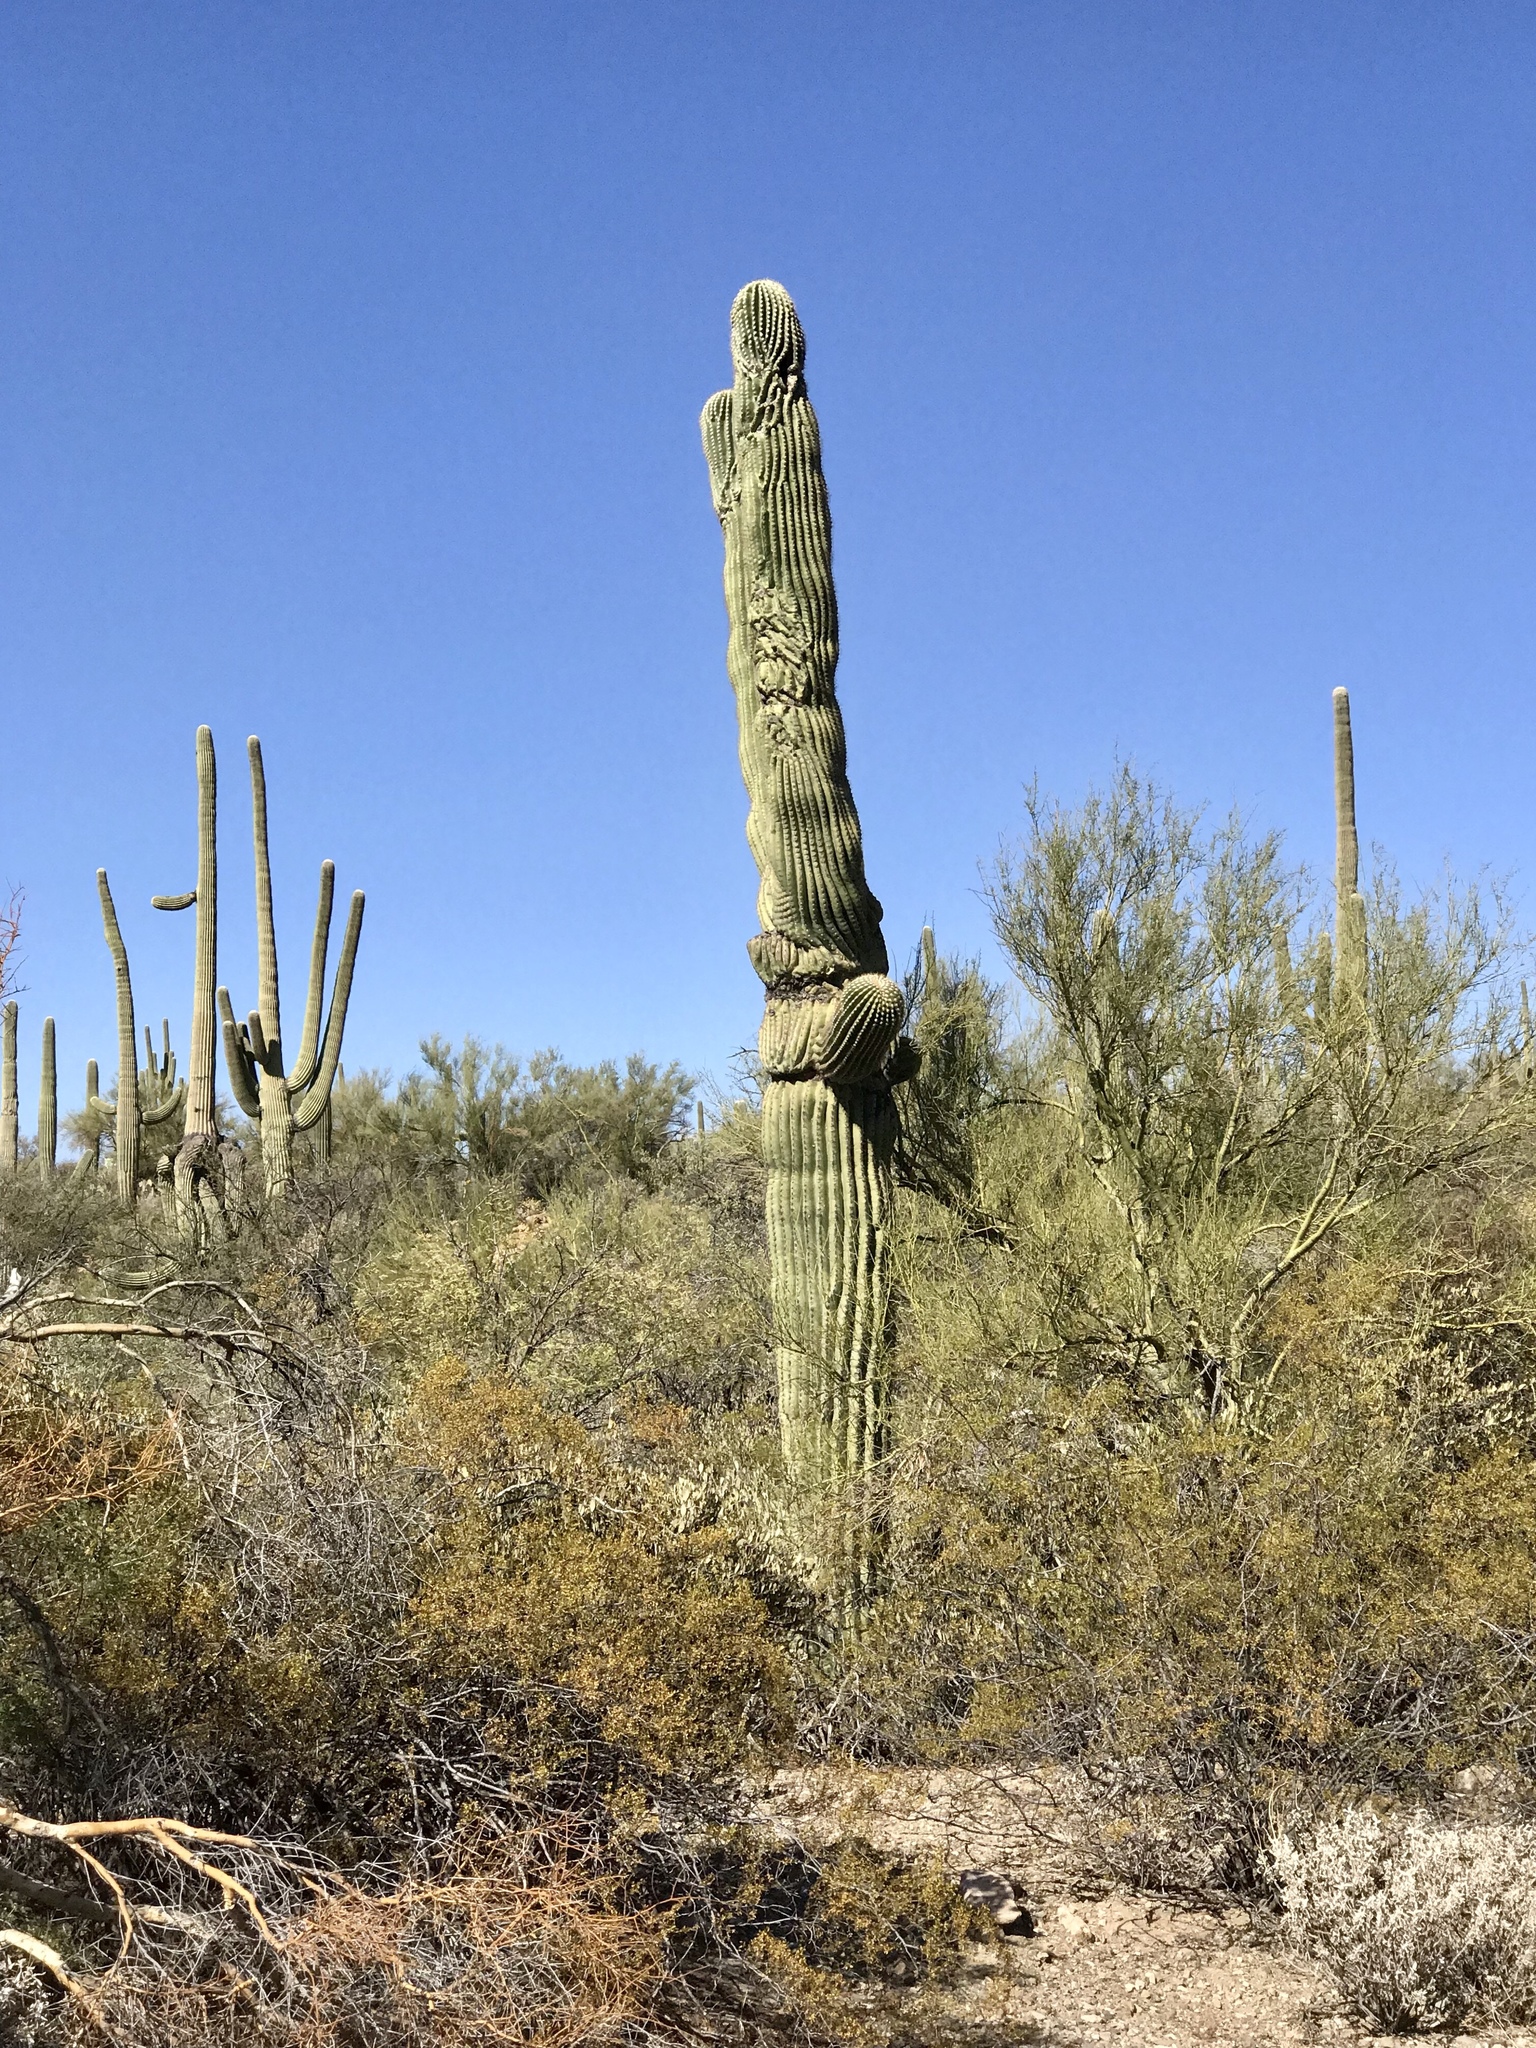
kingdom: Plantae
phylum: Tracheophyta
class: Magnoliopsida
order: Caryophyllales
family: Cactaceae
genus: Carnegiea
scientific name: Carnegiea gigantea
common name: Saguaro
